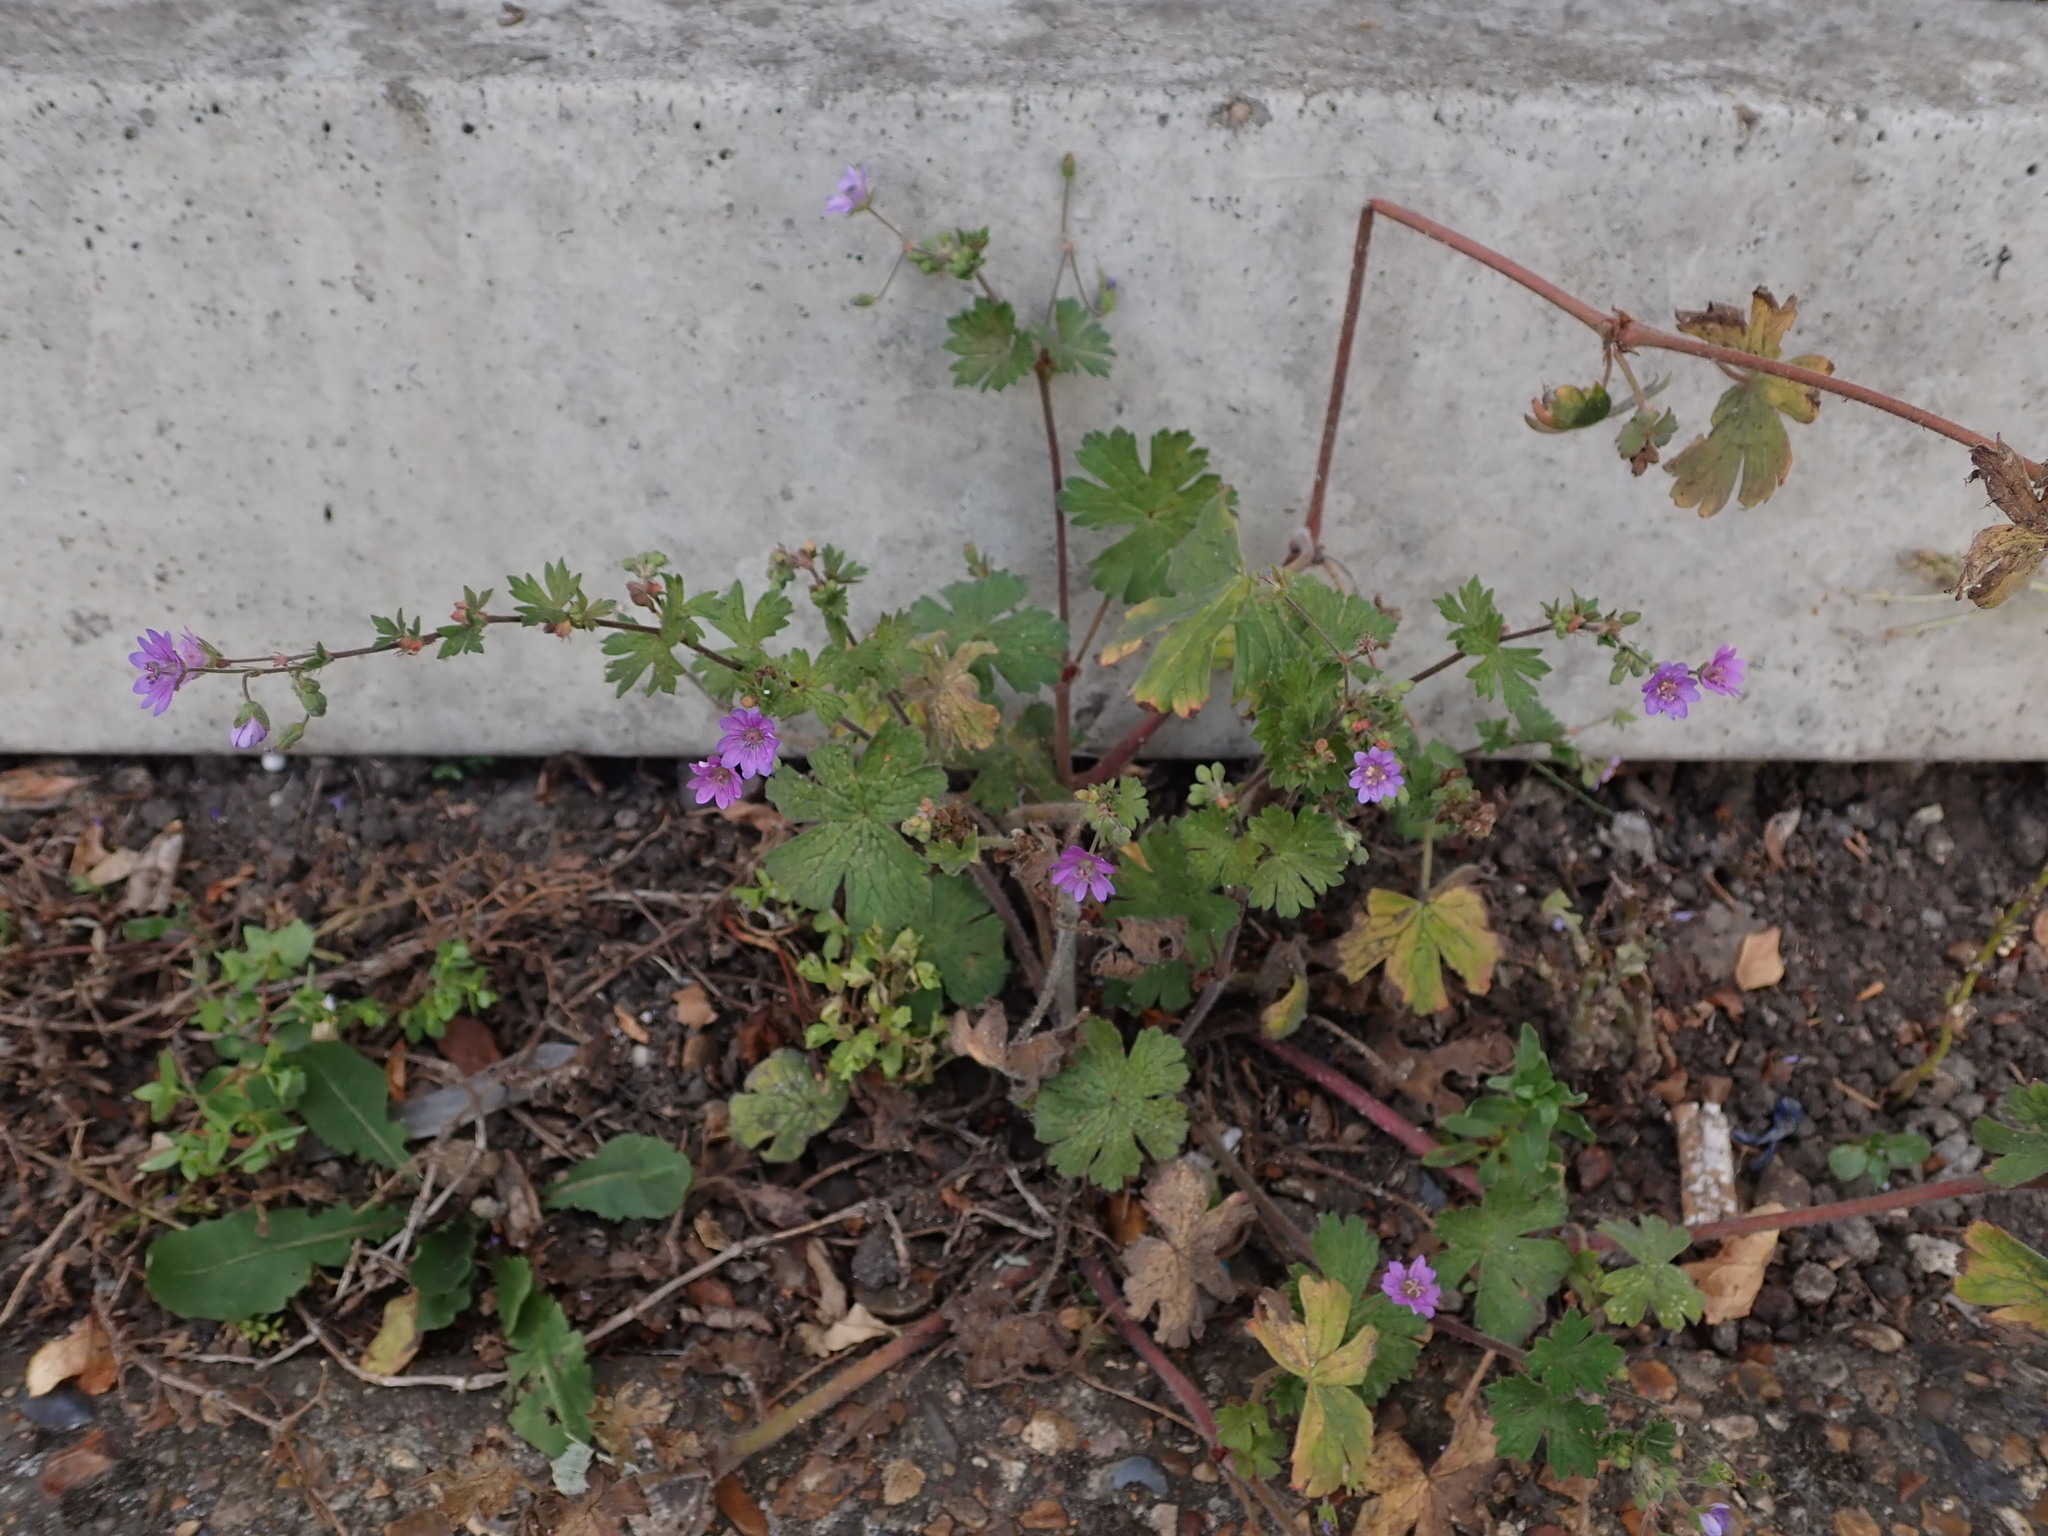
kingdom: Plantae
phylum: Tracheophyta
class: Magnoliopsida
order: Geraniales
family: Geraniaceae
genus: Geranium
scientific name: Geranium pyrenaicum
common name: Hedgerow crane's-bill
